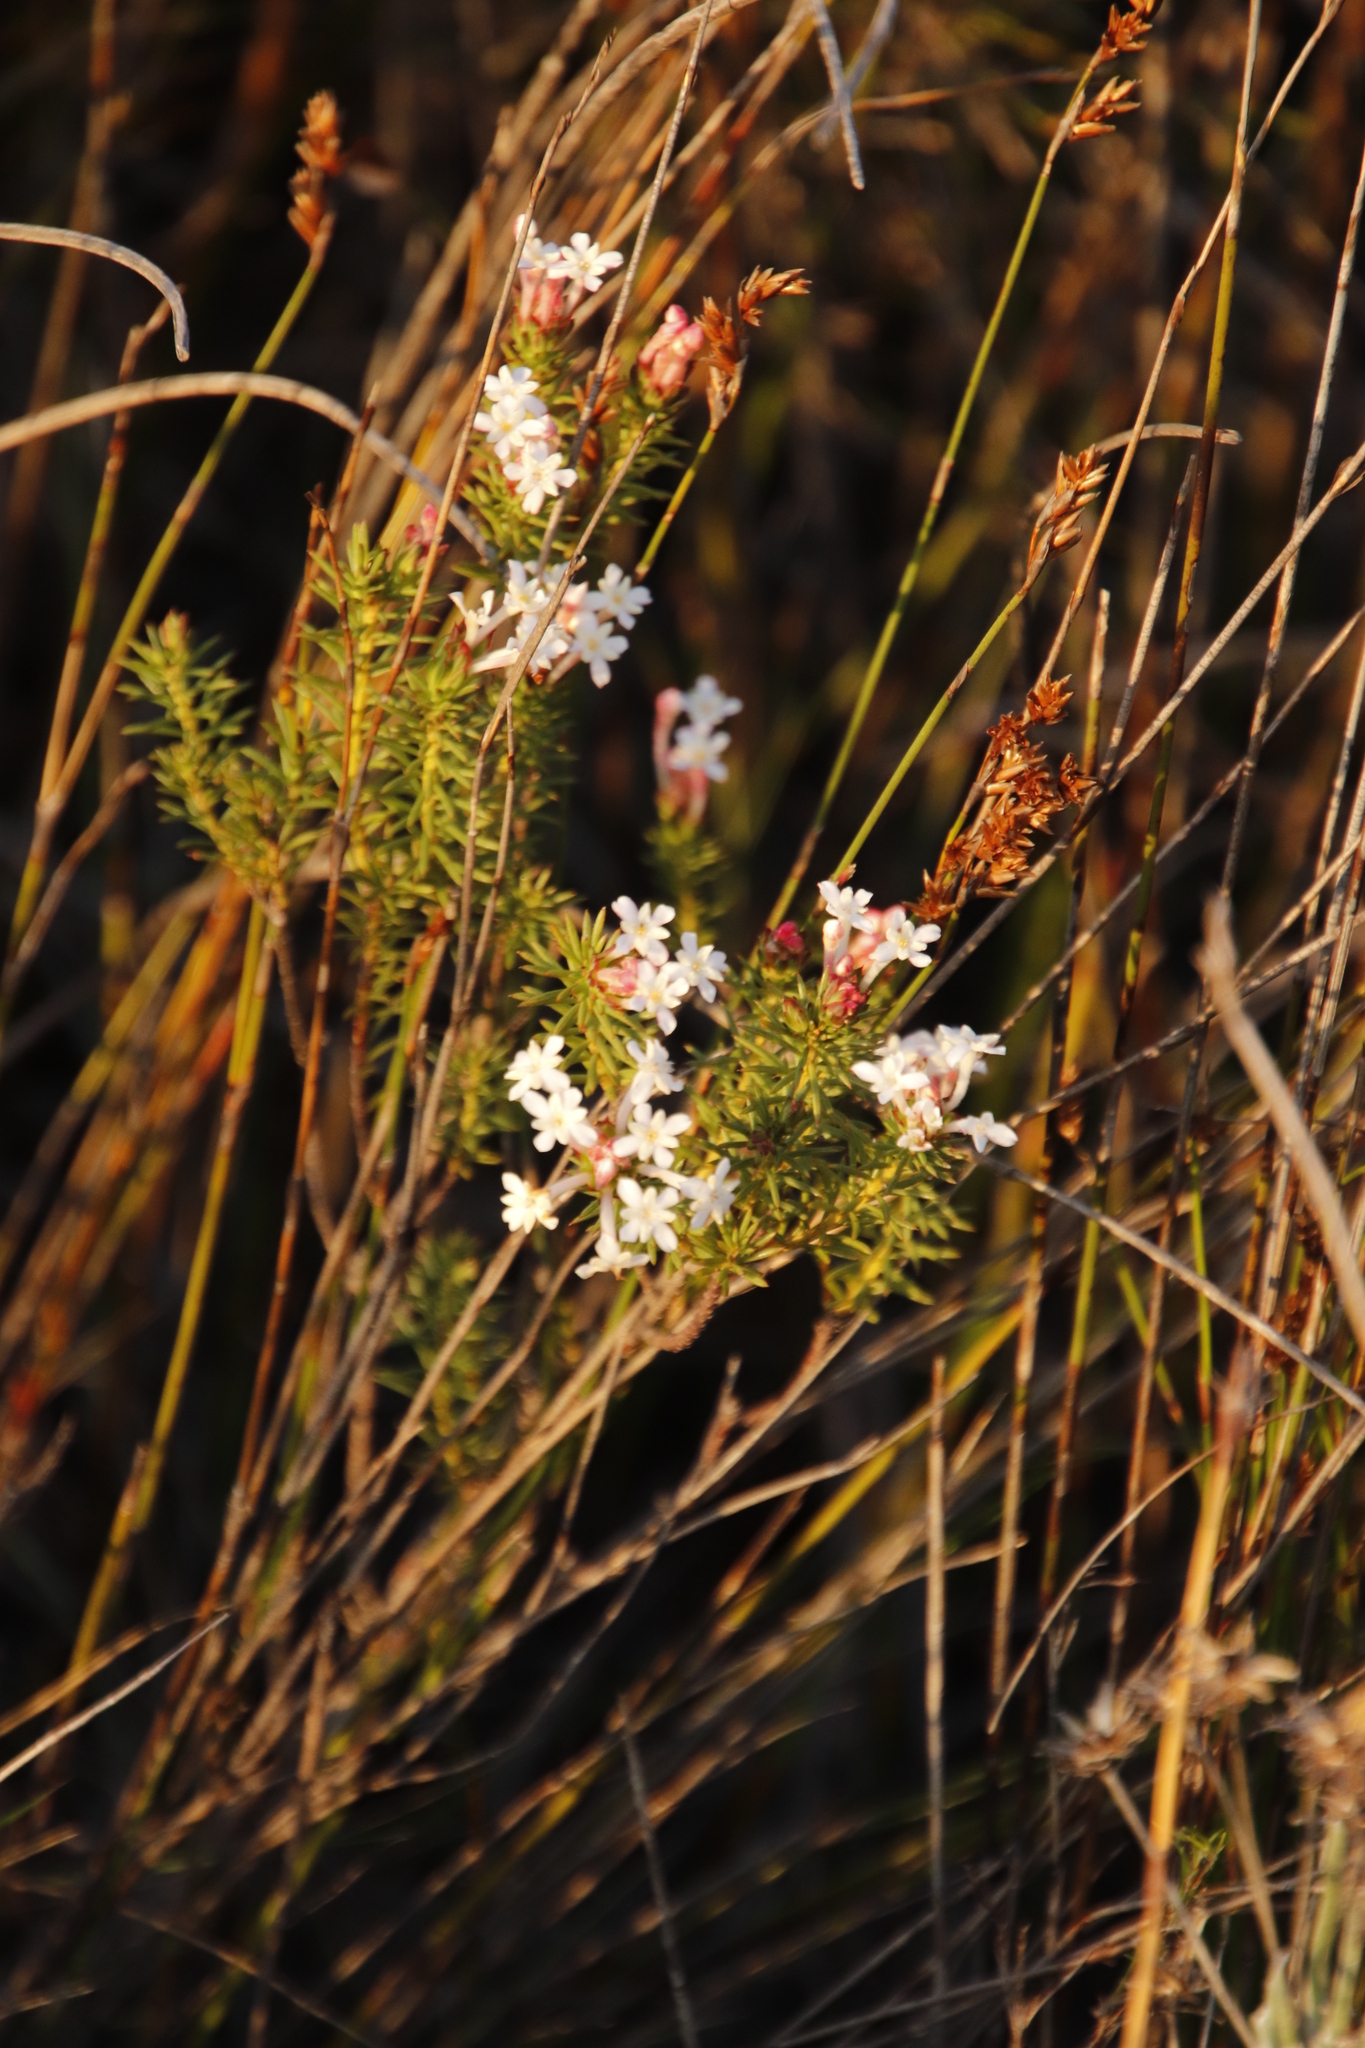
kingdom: Plantae
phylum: Tracheophyta
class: Magnoliopsida
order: Malvales
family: Thymelaeaceae
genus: Gnidia
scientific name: Gnidia pinifolia
